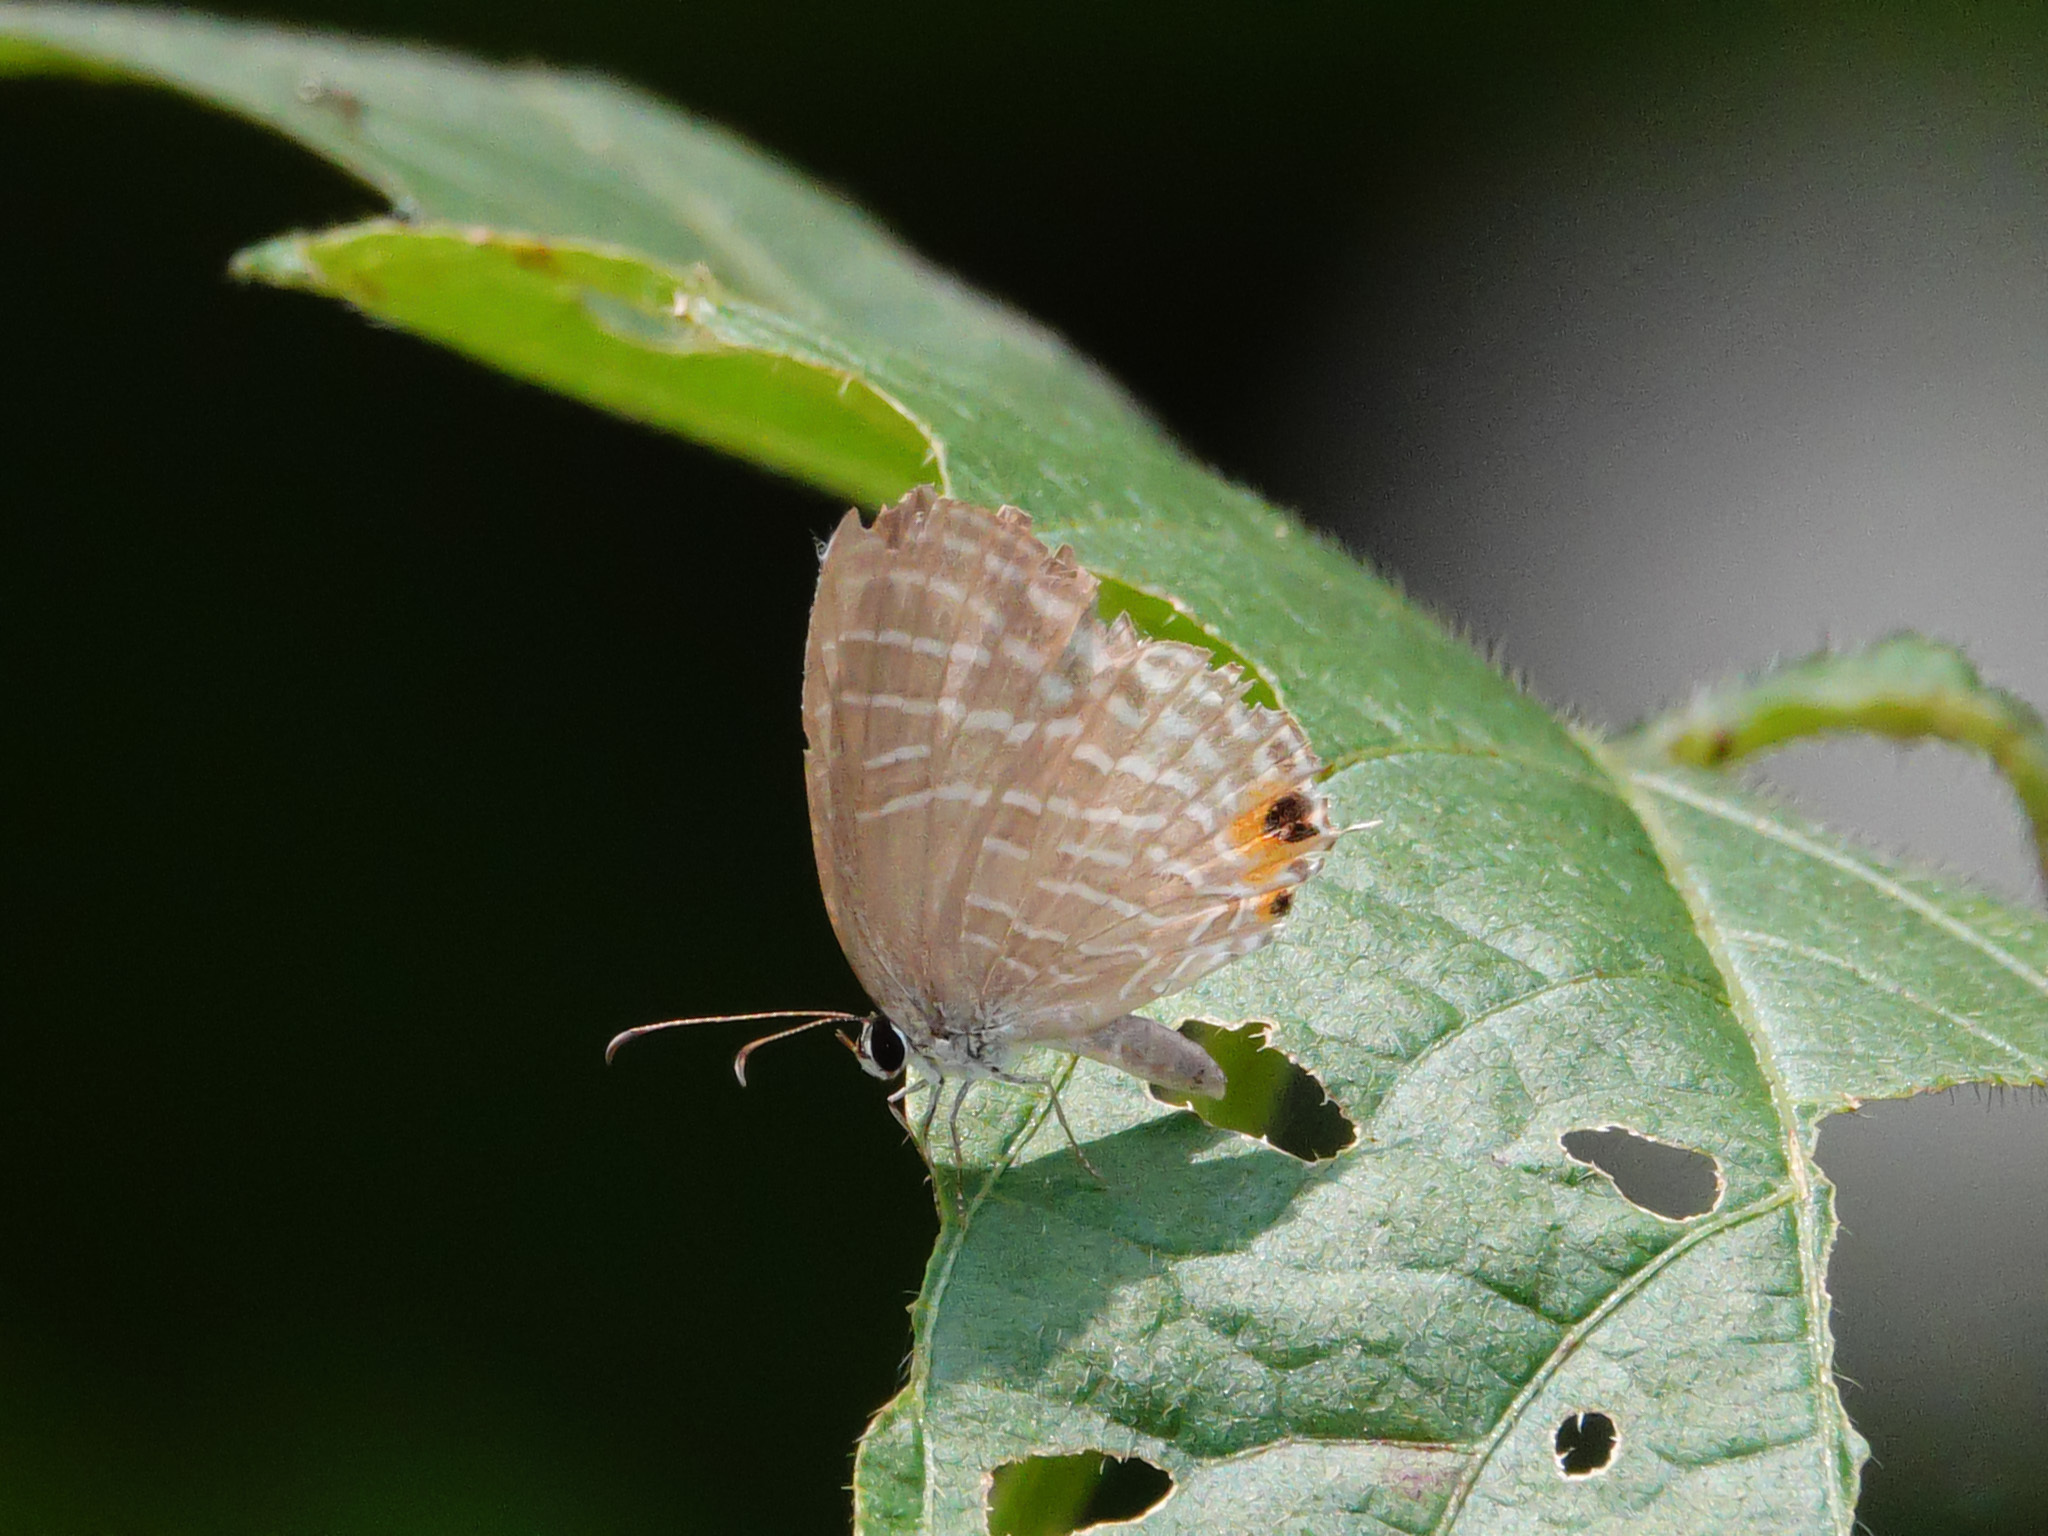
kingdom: Animalia
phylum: Arthropoda
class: Insecta
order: Lepidoptera
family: Lycaenidae
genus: Jamides
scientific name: Jamides celeno
